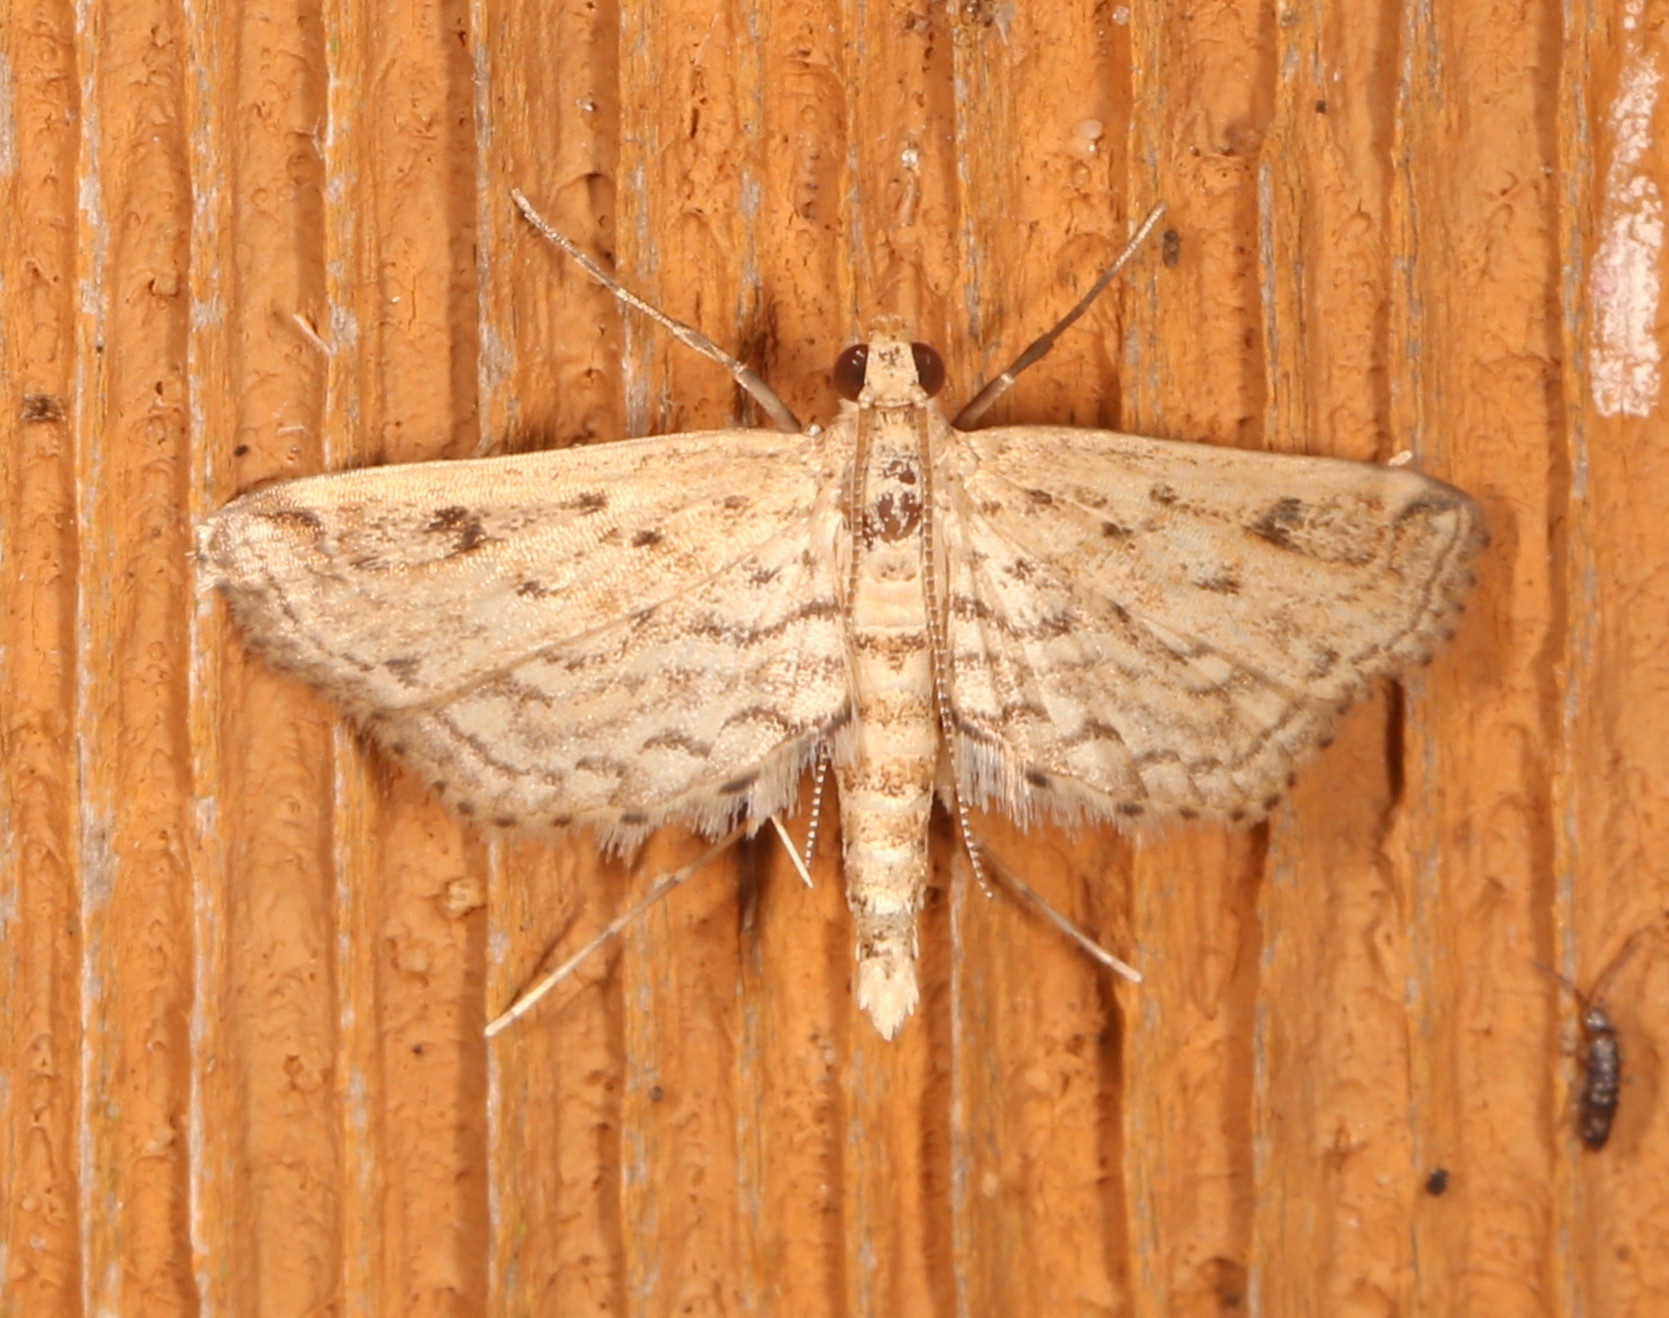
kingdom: Animalia
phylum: Arthropoda
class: Insecta
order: Lepidoptera
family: Crambidae
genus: Parapoynx
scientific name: Parapoynx allionealis
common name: Bladderwort casemaker
